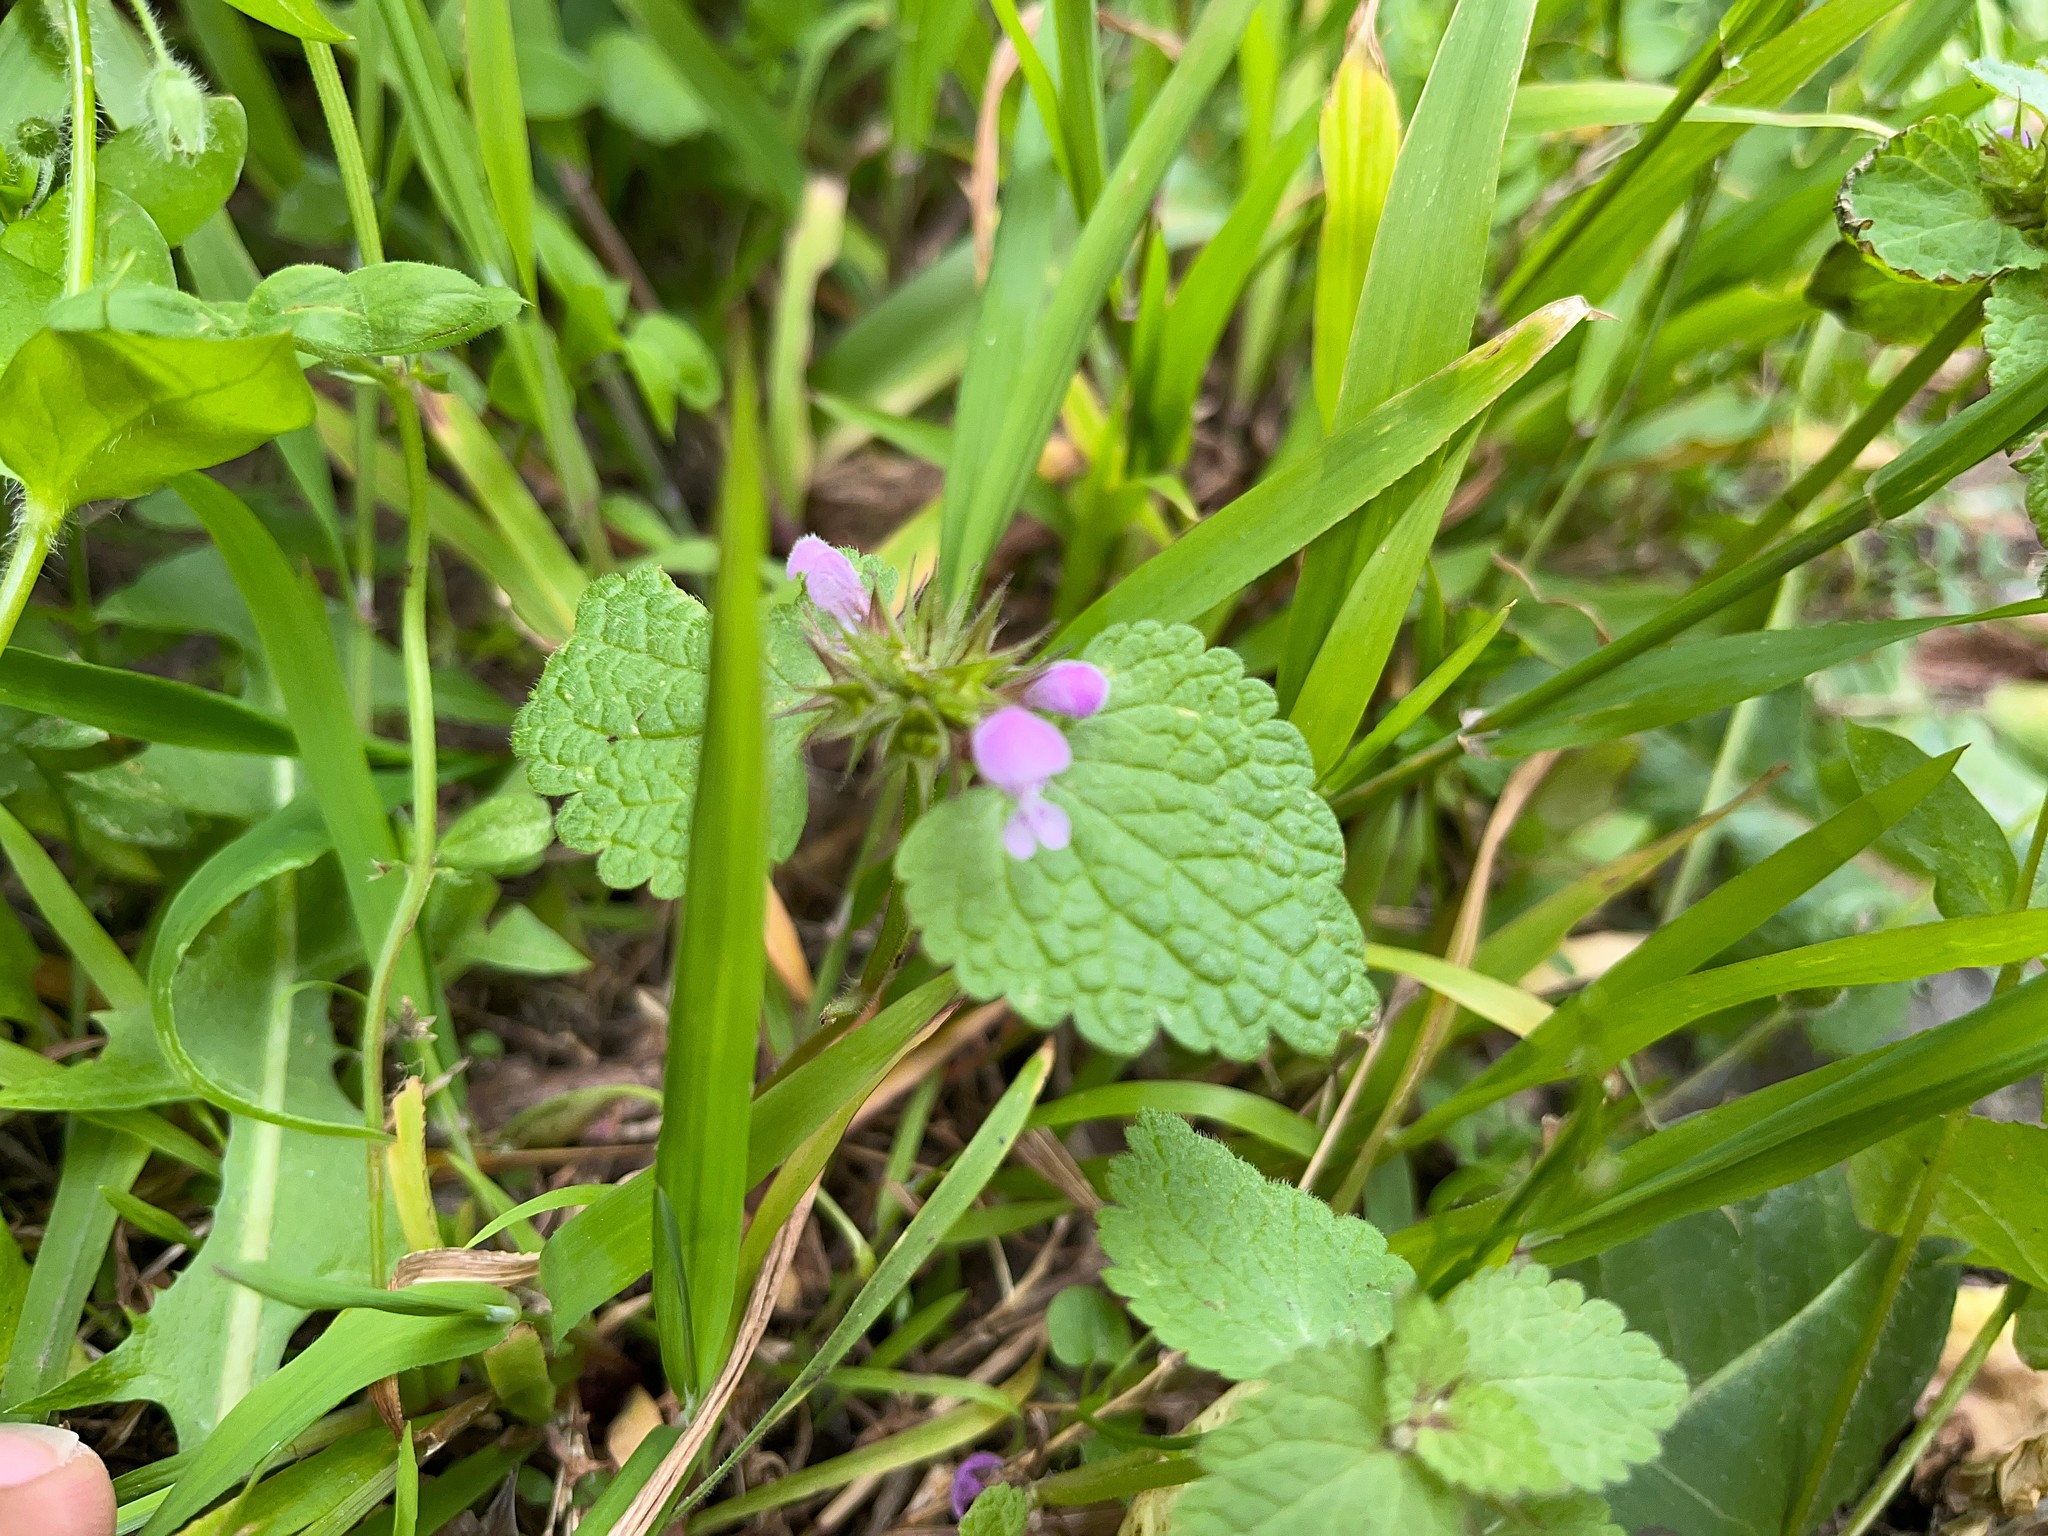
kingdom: Plantae
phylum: Tracheophyta
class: Magnoliopsida
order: Lamiales
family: Lamiaceae
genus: Lamium
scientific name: Lamium purpureum
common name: Red dead-nettle
